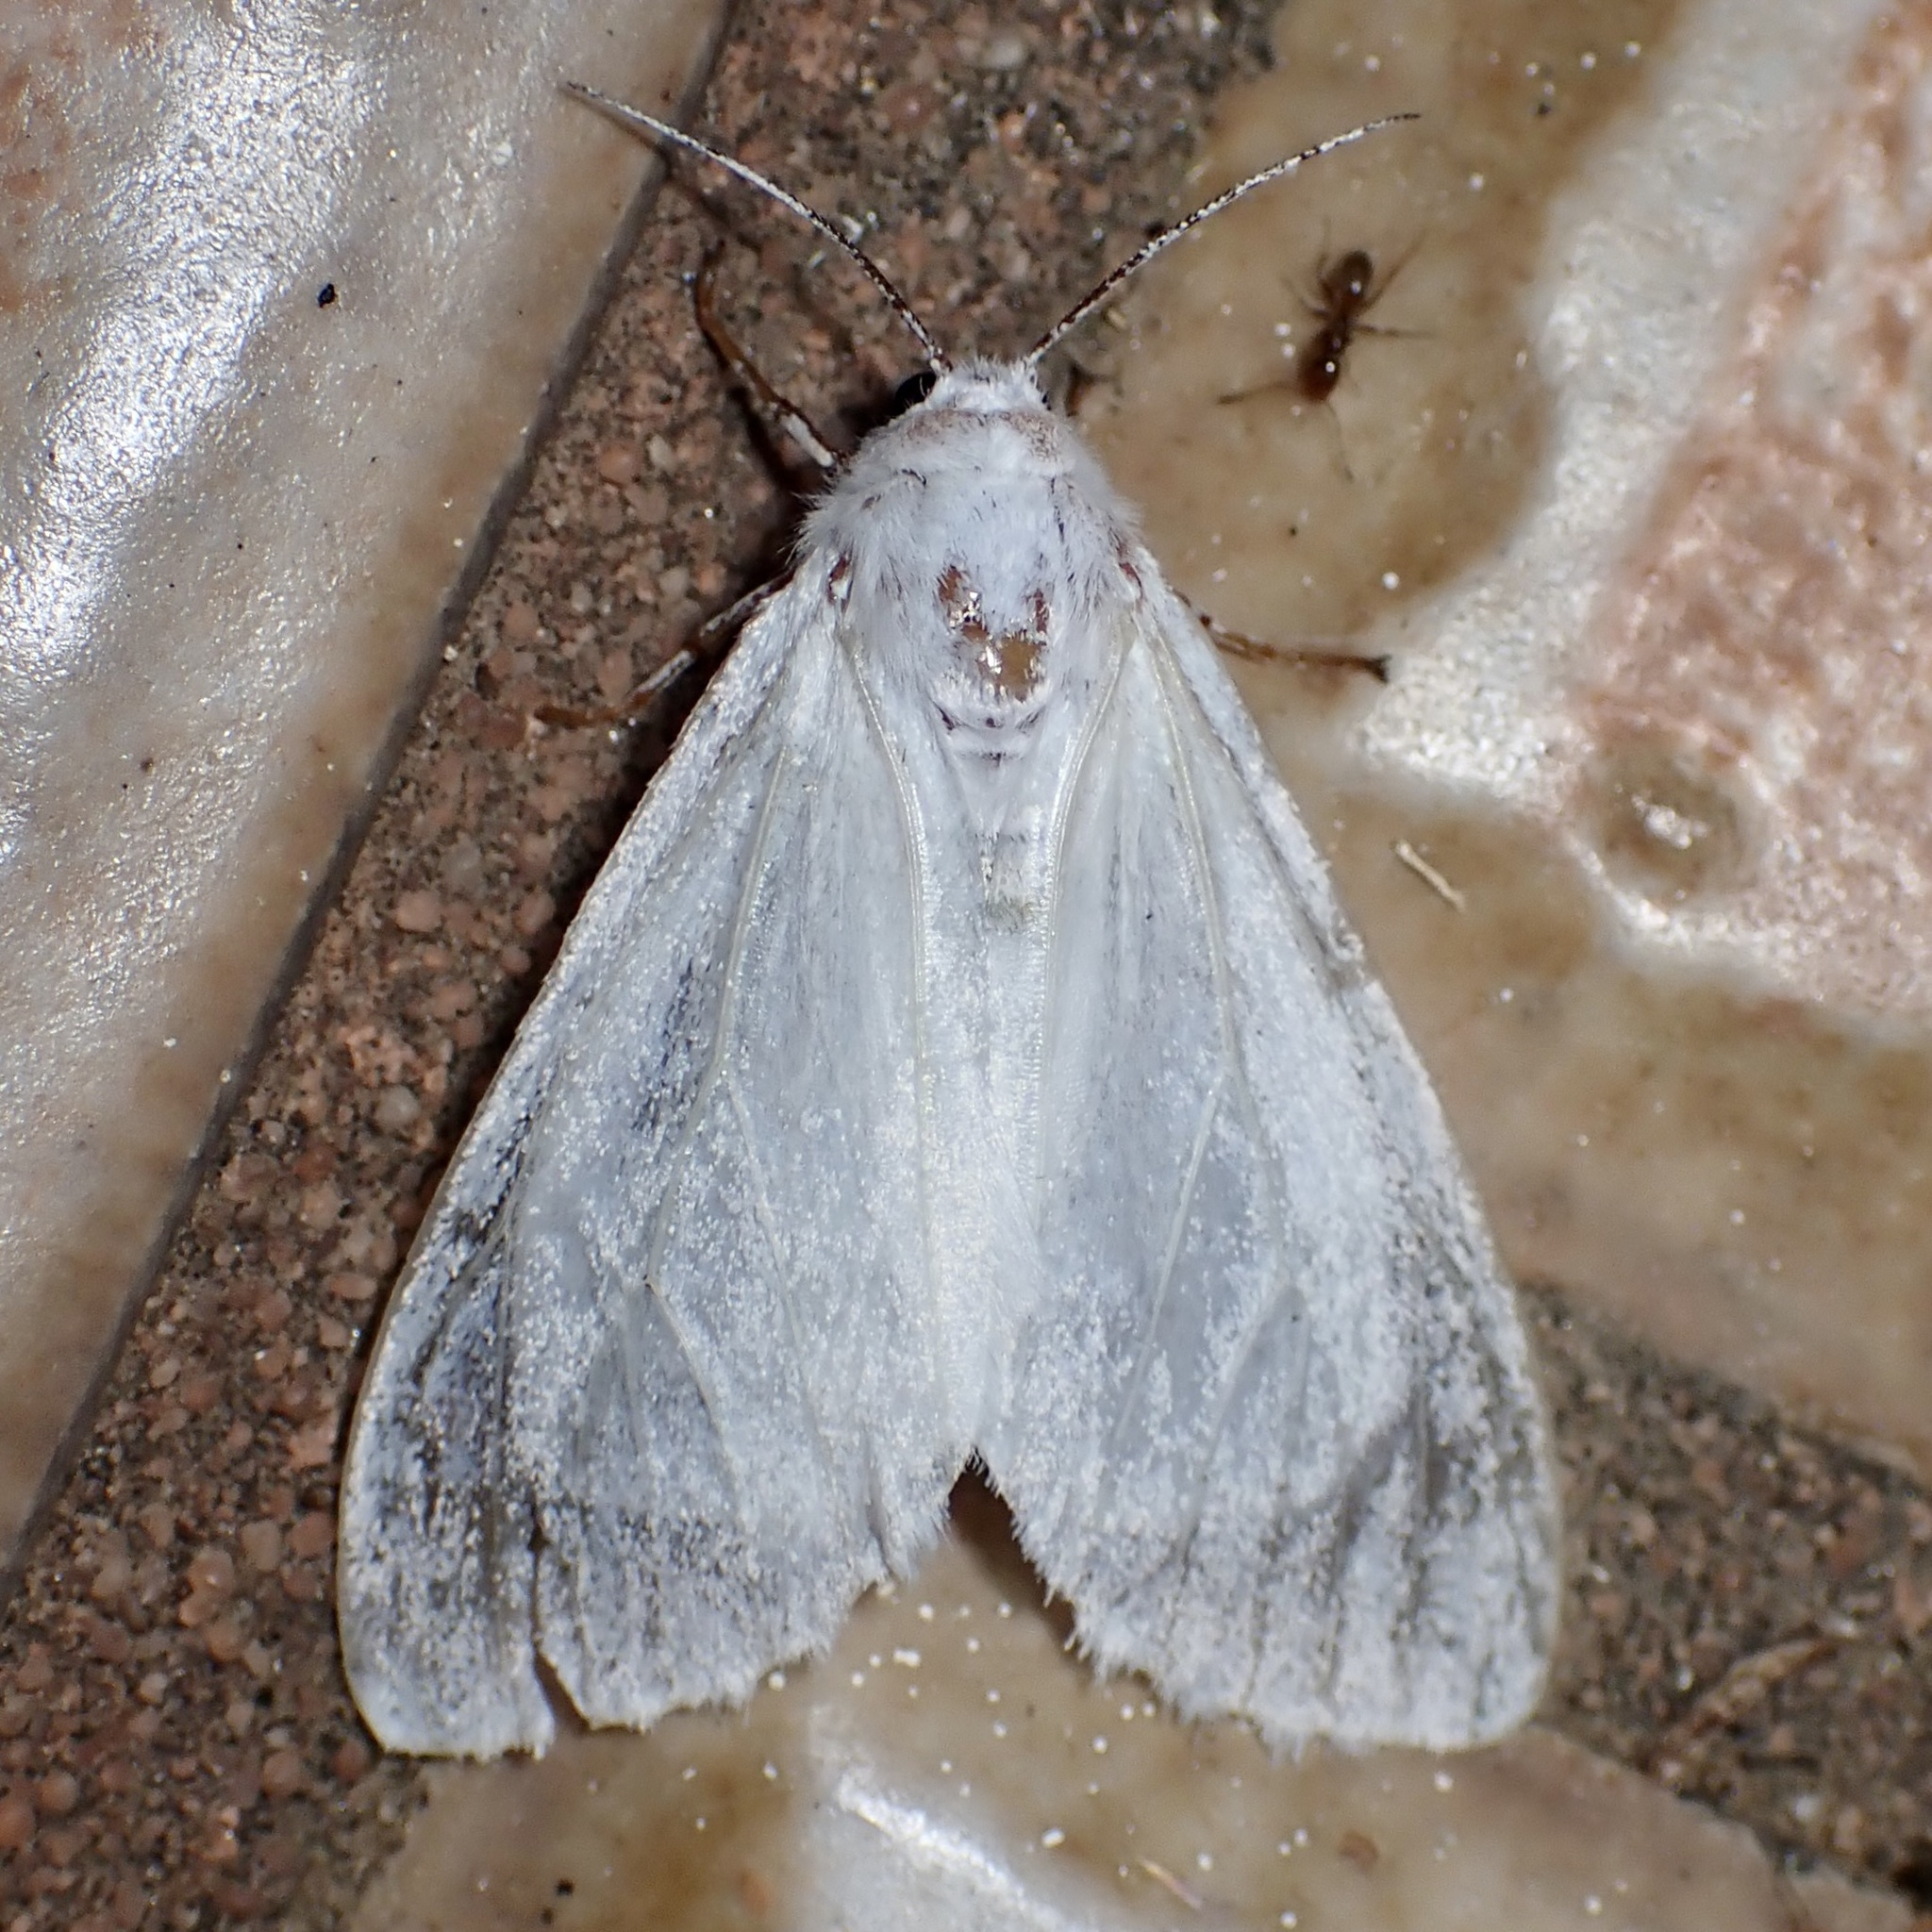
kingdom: Animalia
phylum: Arthropoda
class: Insecta
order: Lepidoptera
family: Erebidae
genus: Hyphantria
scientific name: Hyphantria cunea
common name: American white moth
